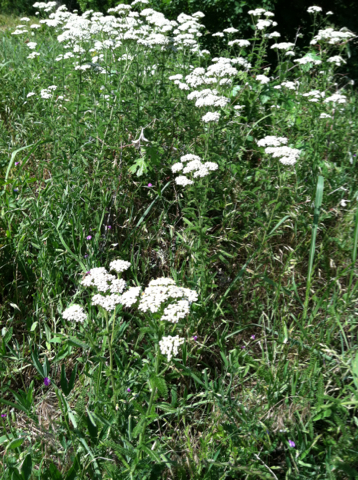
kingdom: Plantae
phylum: Tracheophyta
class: Magnoliopsida
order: Asterales
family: Asteraceae
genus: Achillea
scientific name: Achillea millefolium
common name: Yarrow
